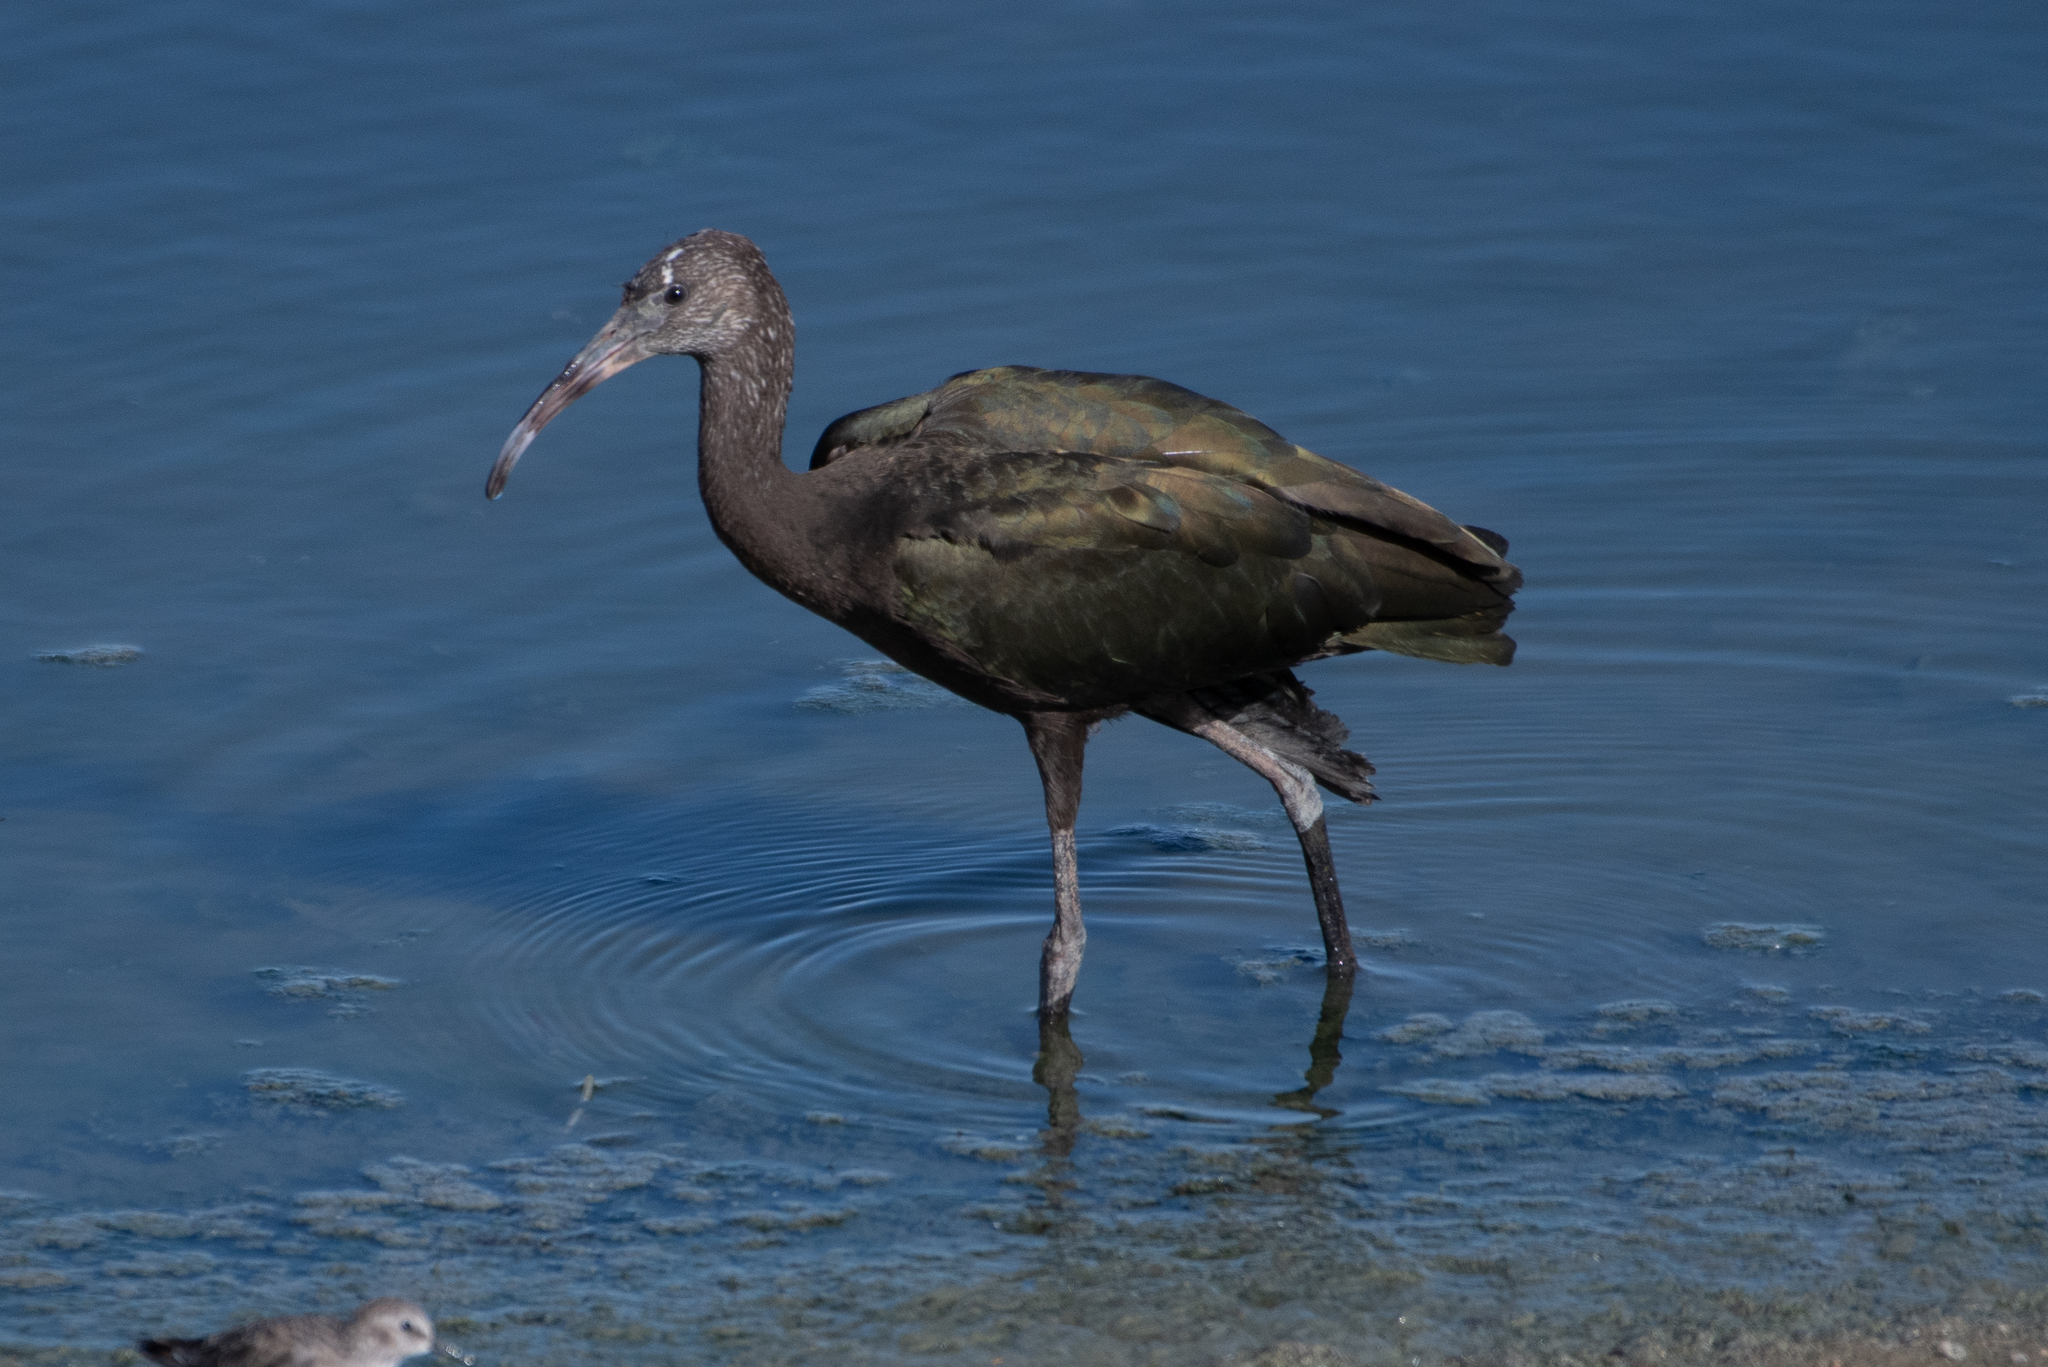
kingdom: Animalia
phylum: Chordata
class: Aves
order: Pelecaniformes
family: Threskiornithidae
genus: Plegadis
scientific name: Plegadis chihi
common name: White-faced ibis
